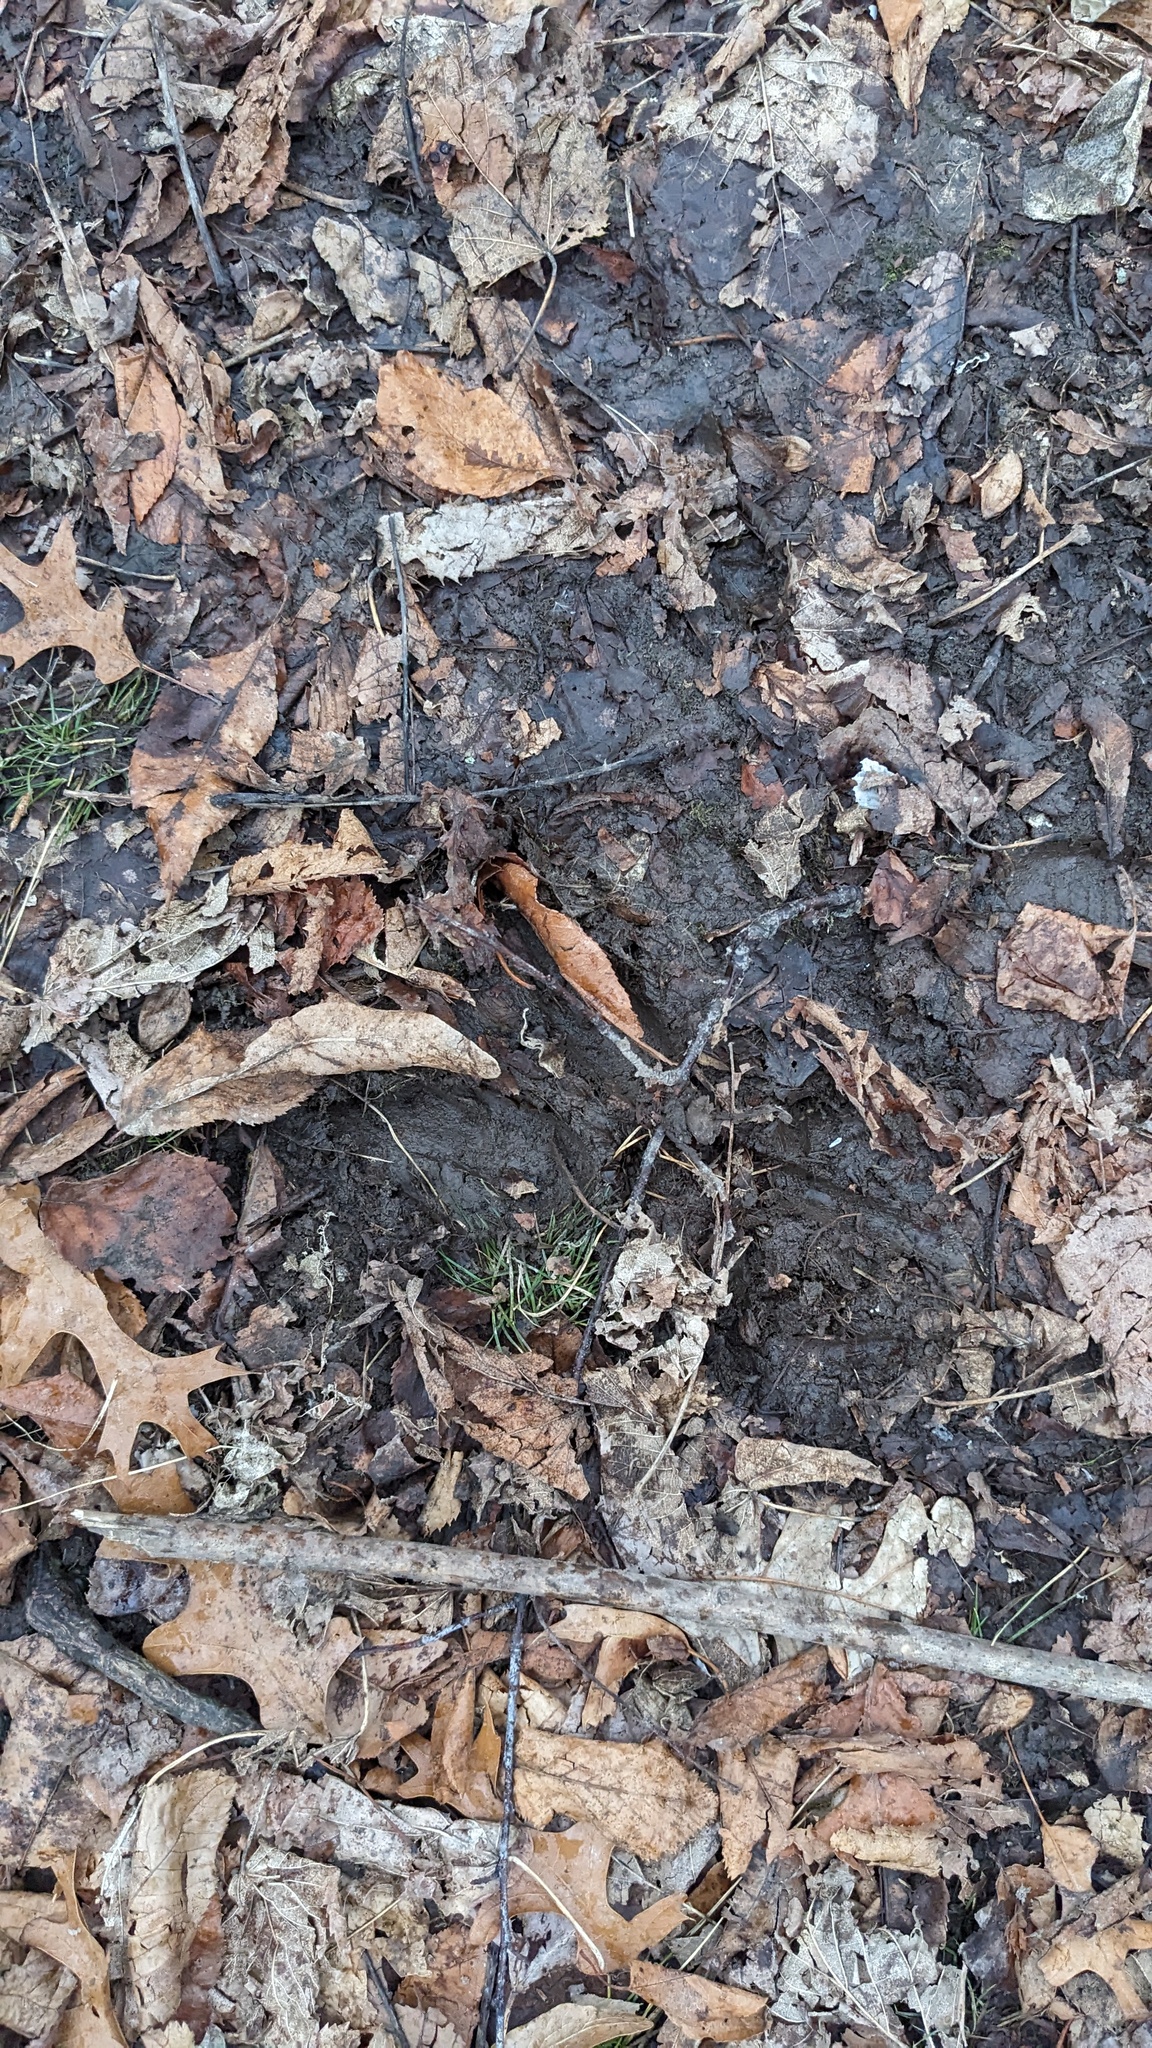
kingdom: Animalia
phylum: Chordata
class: Mammalia
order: Artiodactyla
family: Cervidae
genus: Odocoileus
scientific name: Odocoileus virginianus
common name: White-tailed deer
